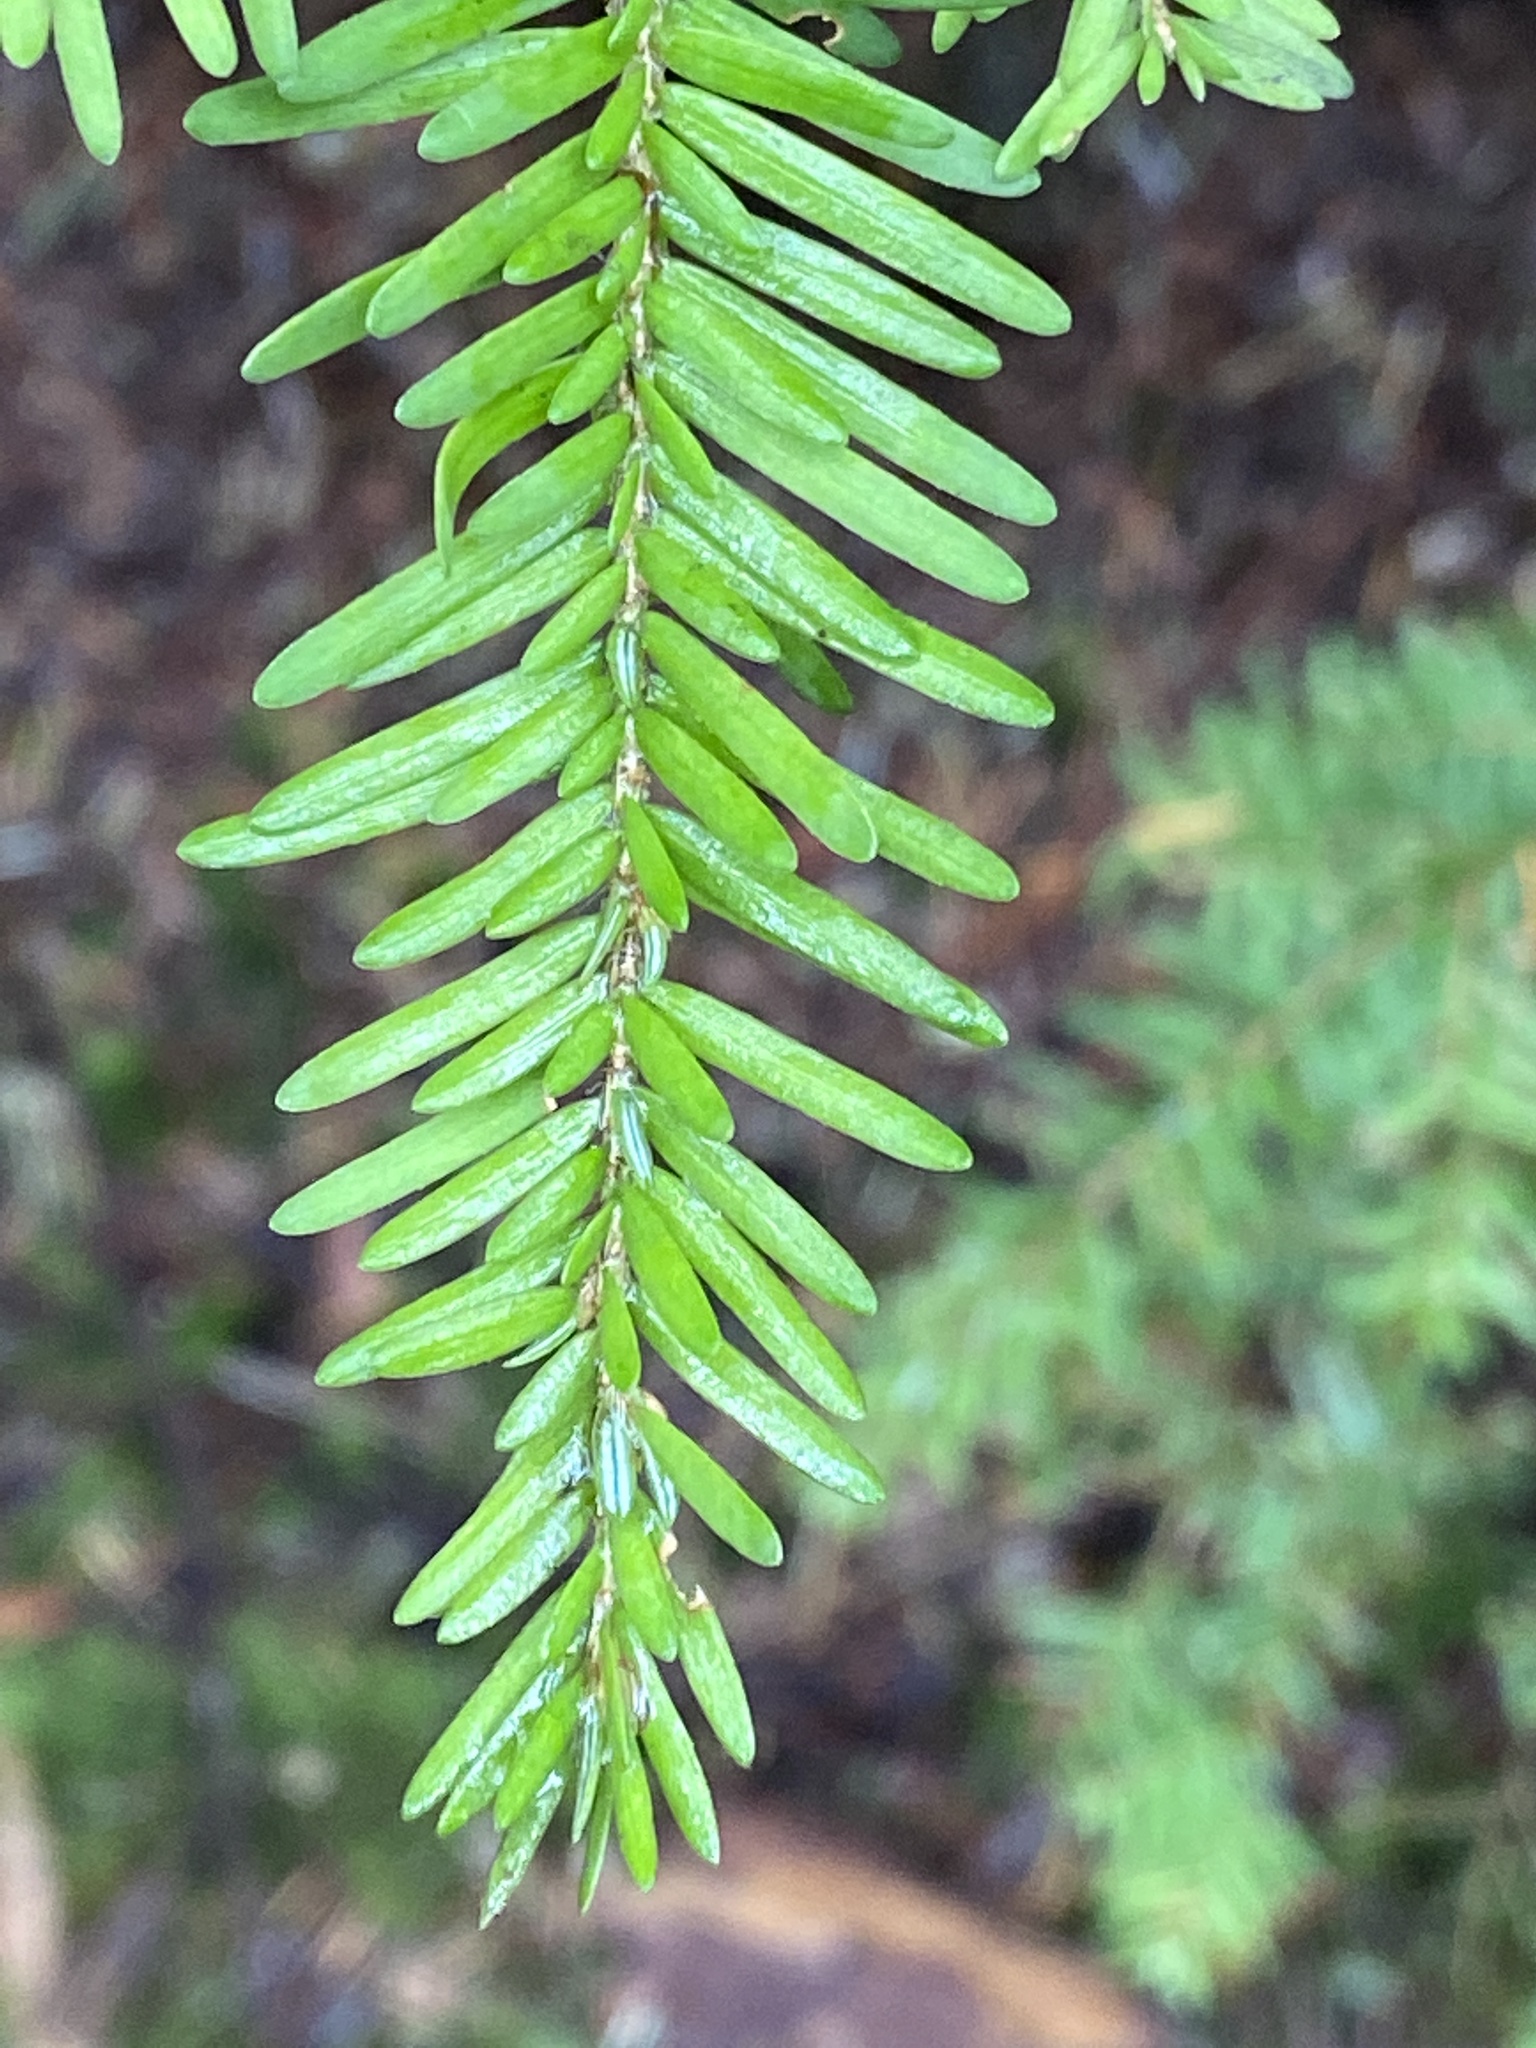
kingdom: Plantae
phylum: Tracheophyta
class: Pinopsida
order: Pinales
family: Pinaceae
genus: Tsuga
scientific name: Tsuga heterophylla
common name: Western hemlock
